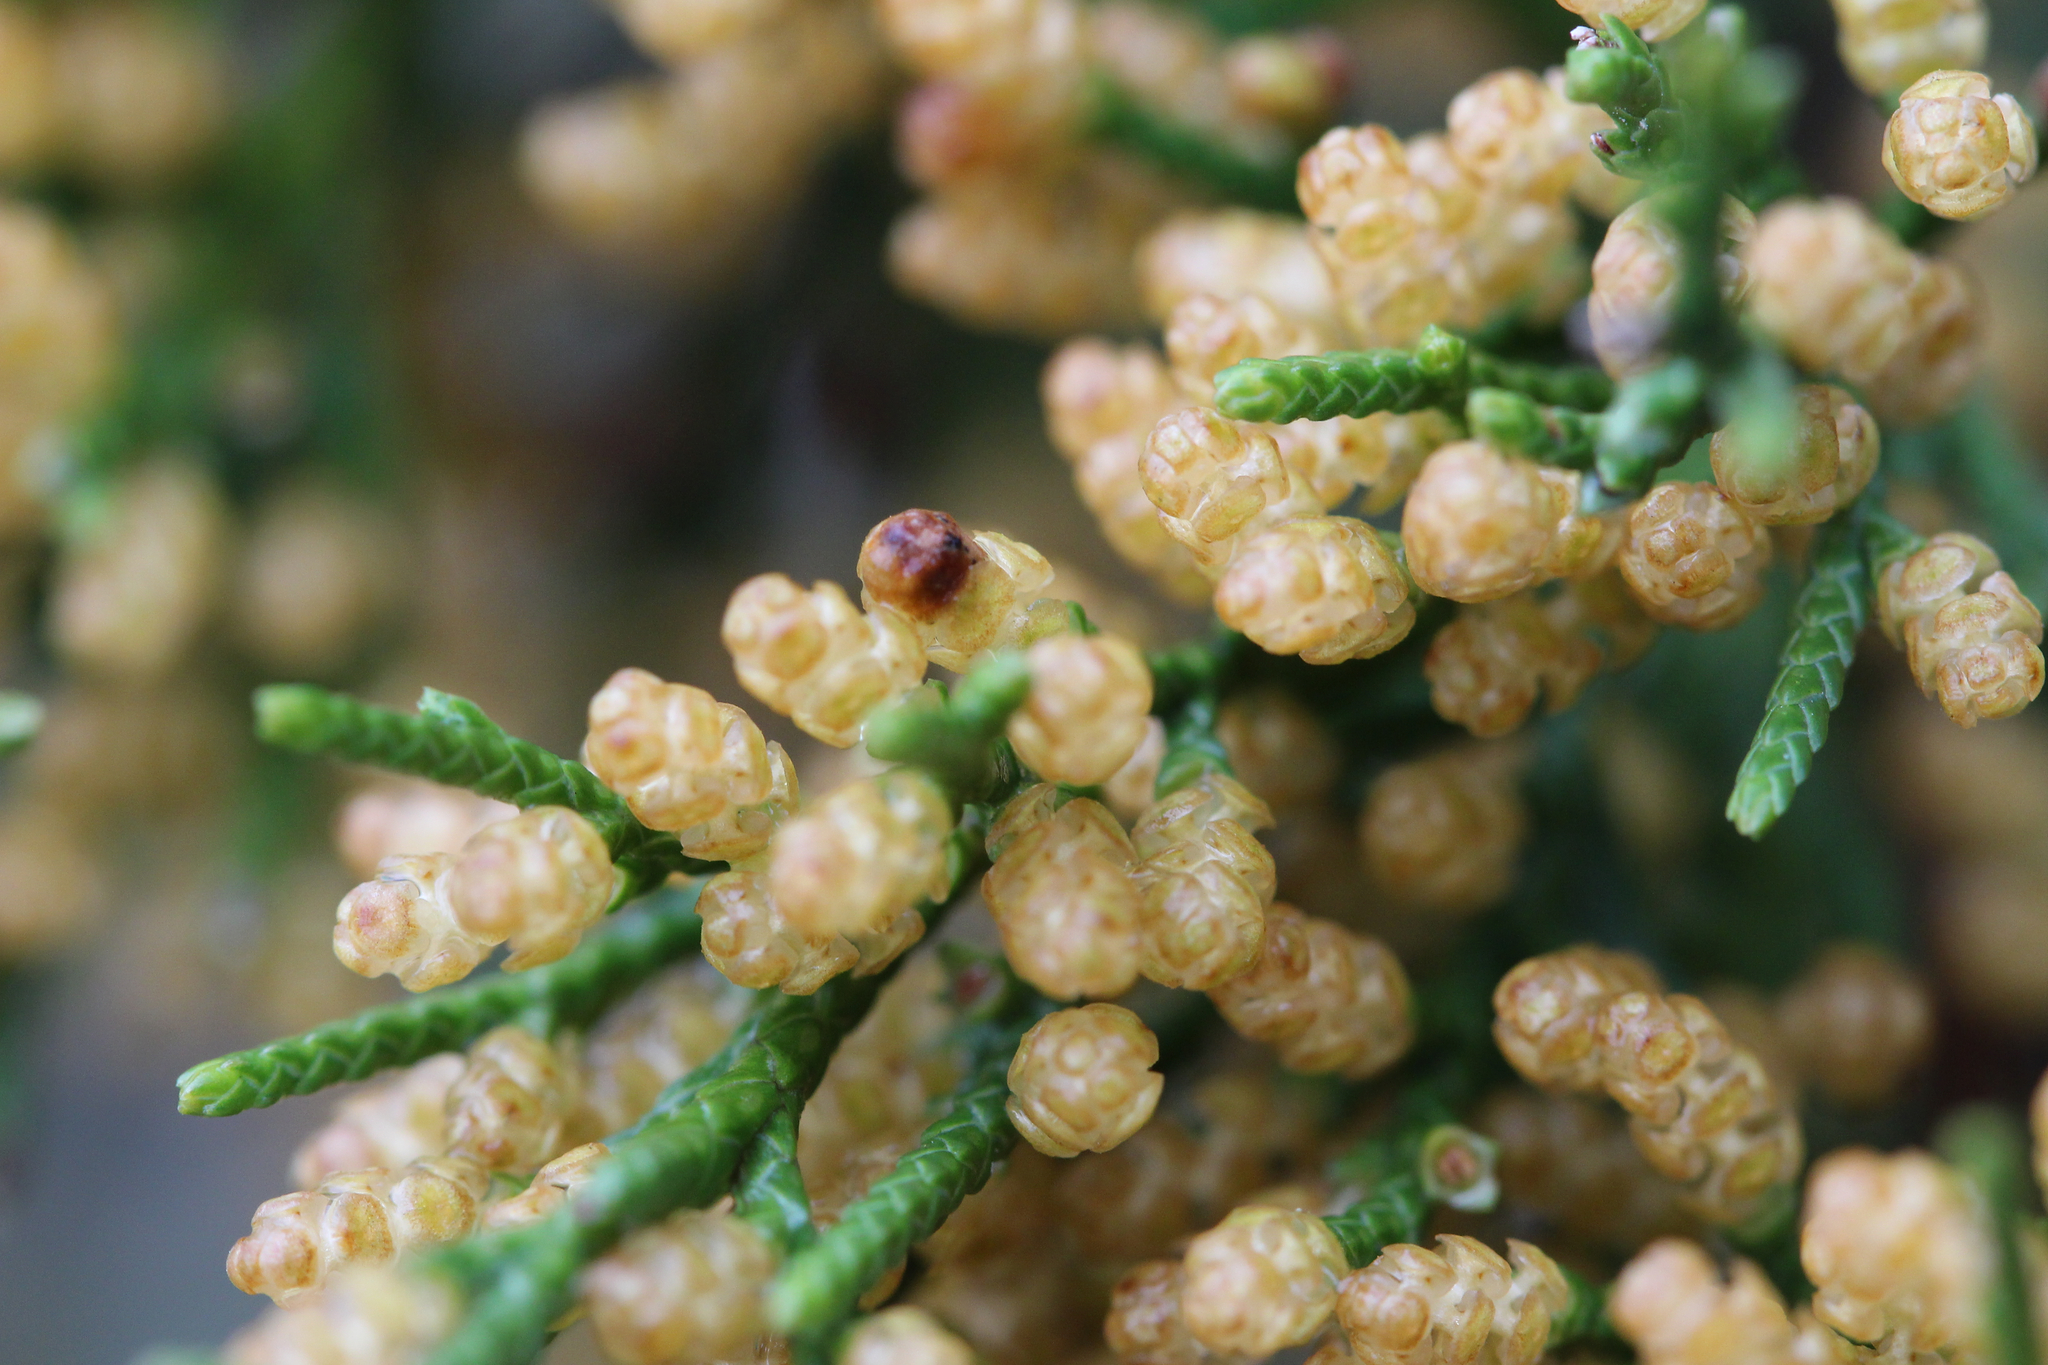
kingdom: Plantae
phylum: Tracheophyta
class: Pinopsida
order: Pinales
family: Cupressaceae
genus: Juniperus
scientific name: Juniperus virginiana
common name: Red juniper
